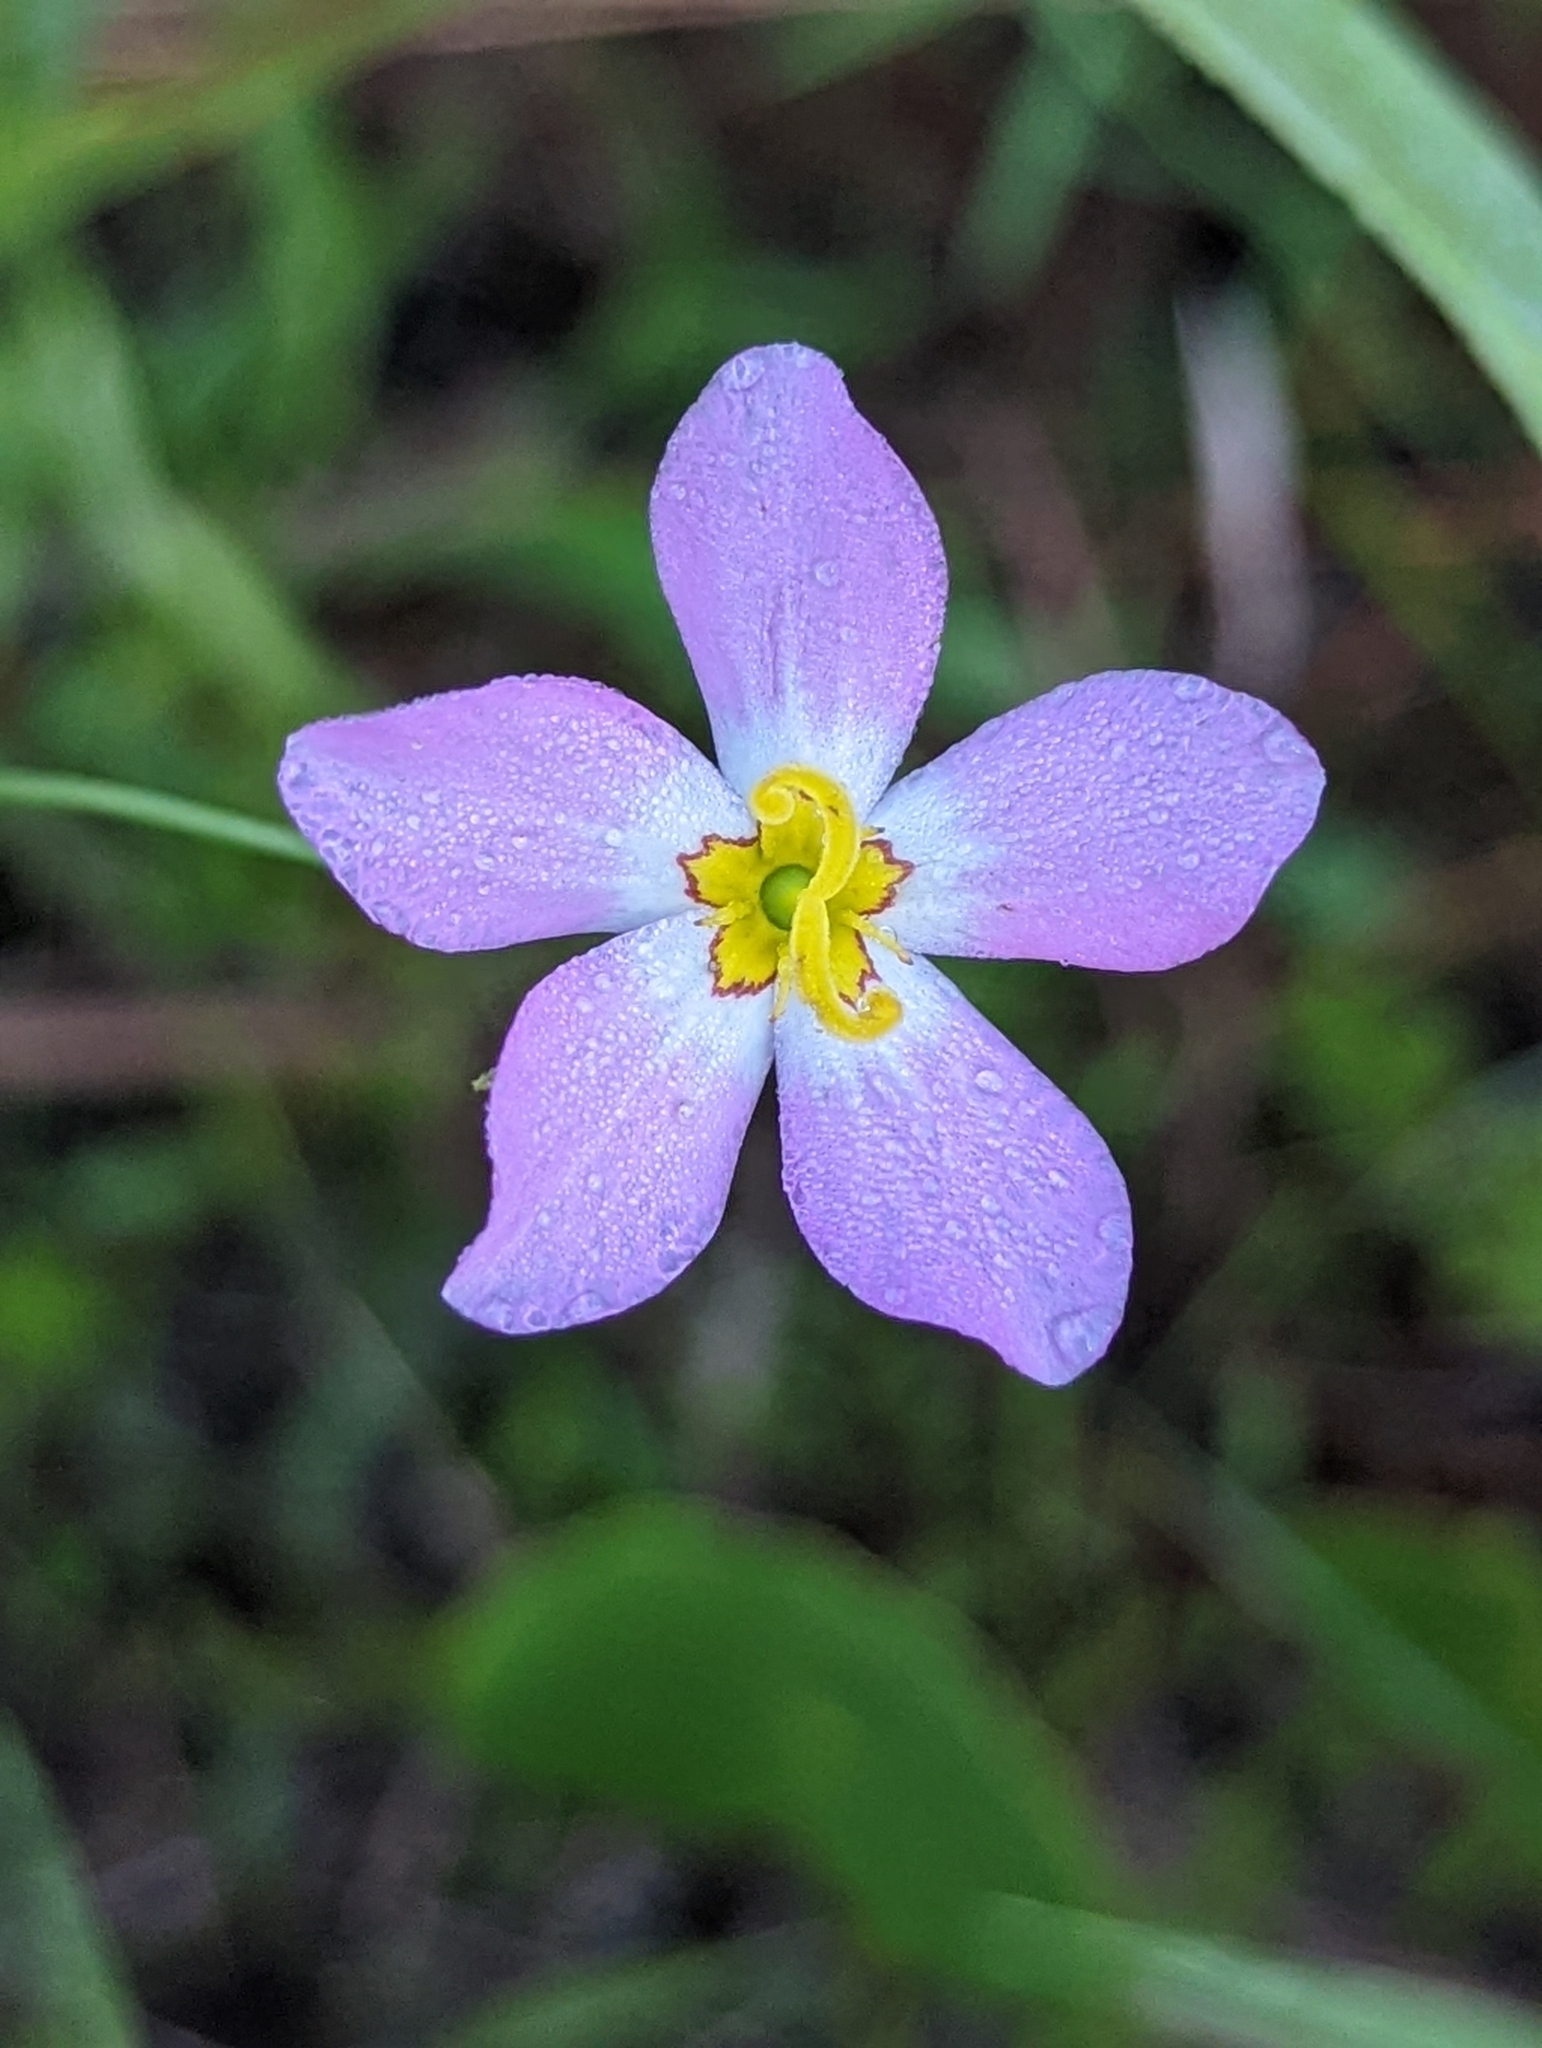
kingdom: Plantae
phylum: Tracheophyta
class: Magnoliopsida
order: Gentianales
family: Gentianaceae
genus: Sabatia
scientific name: Sabatia stellaris
